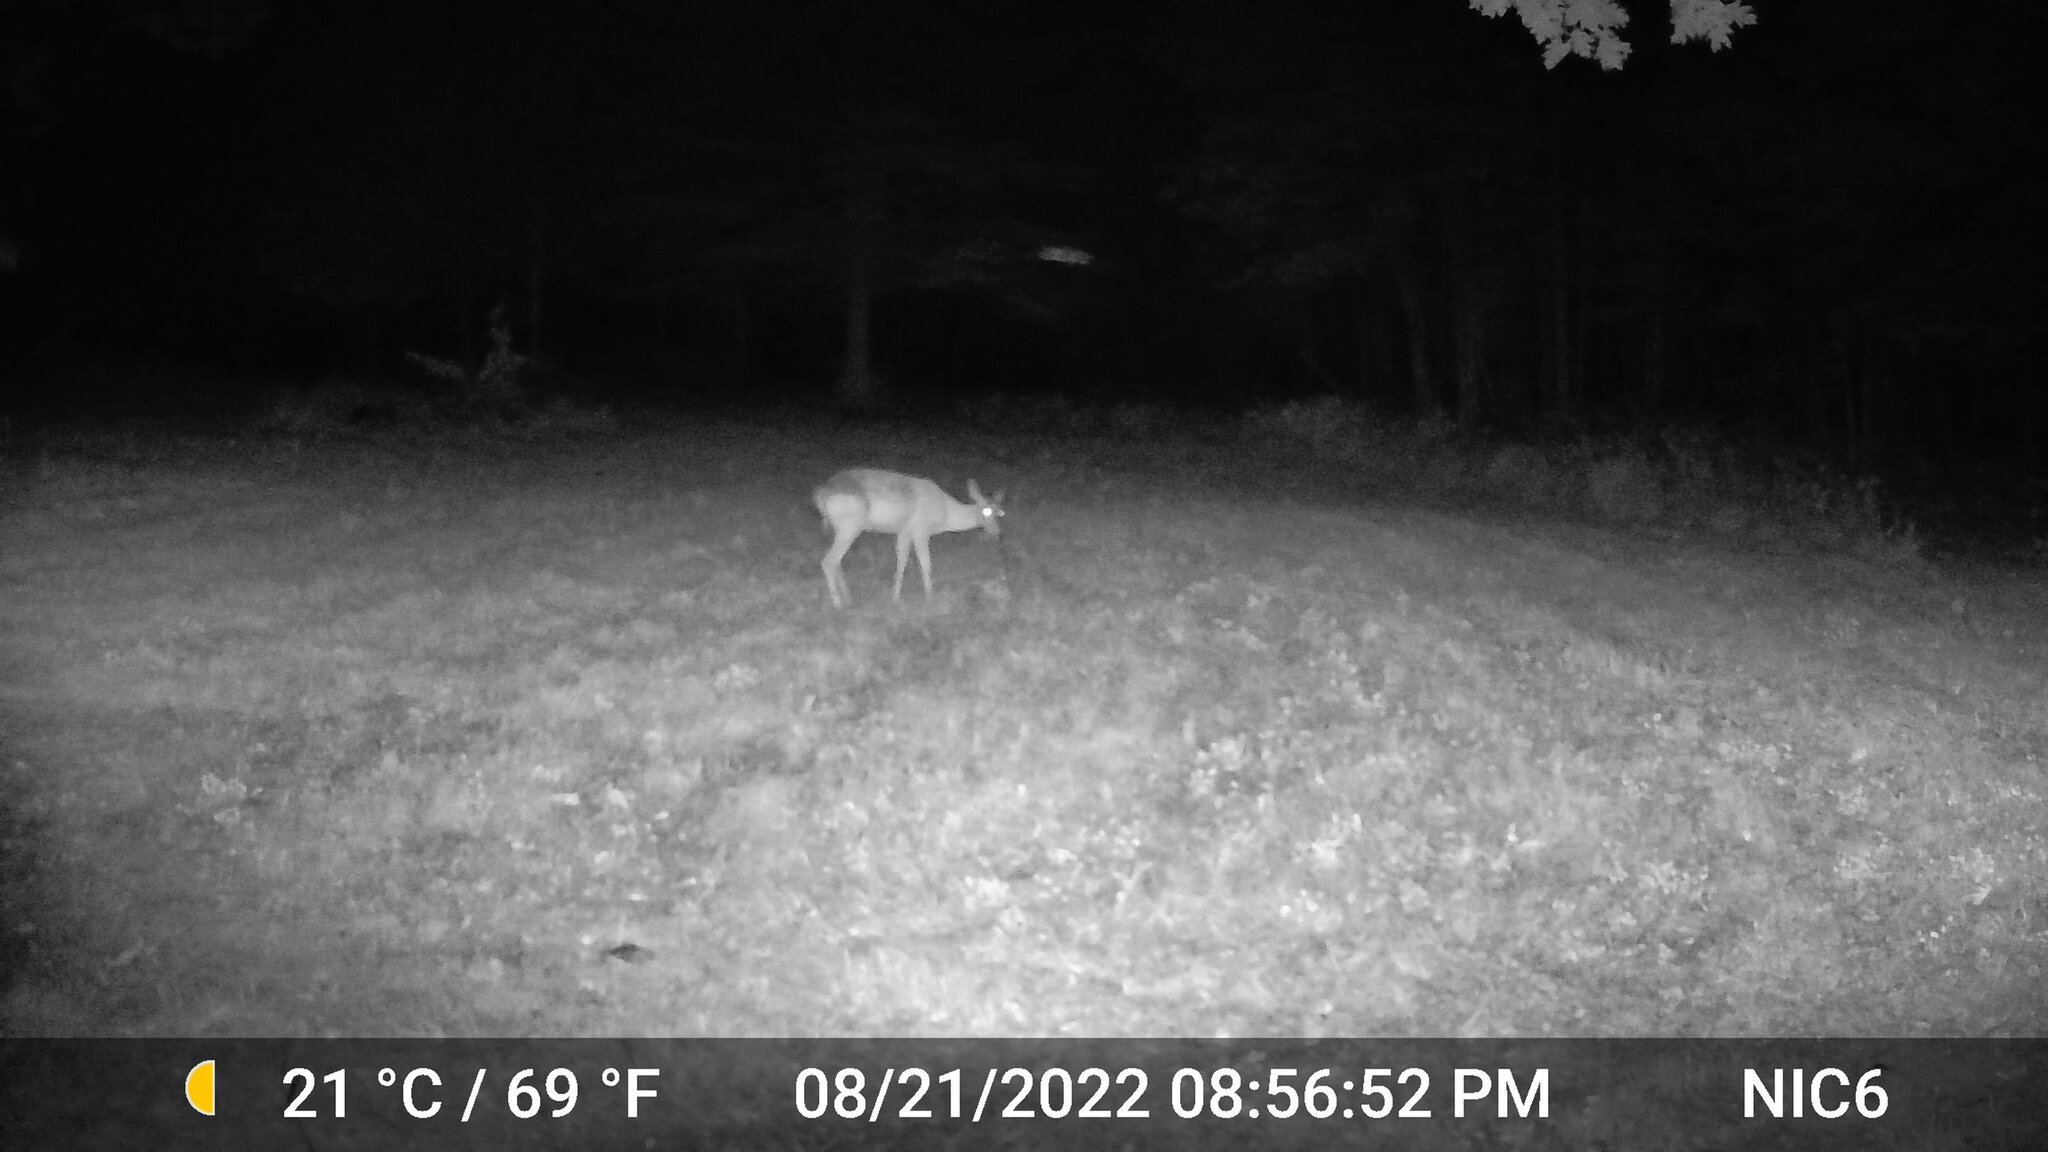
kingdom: Animalia
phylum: Chordata
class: Mammalia
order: Artiodactyla
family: Cervidae
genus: Odocoileus
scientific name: Odocoileus virginianus
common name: White-tailed deer
